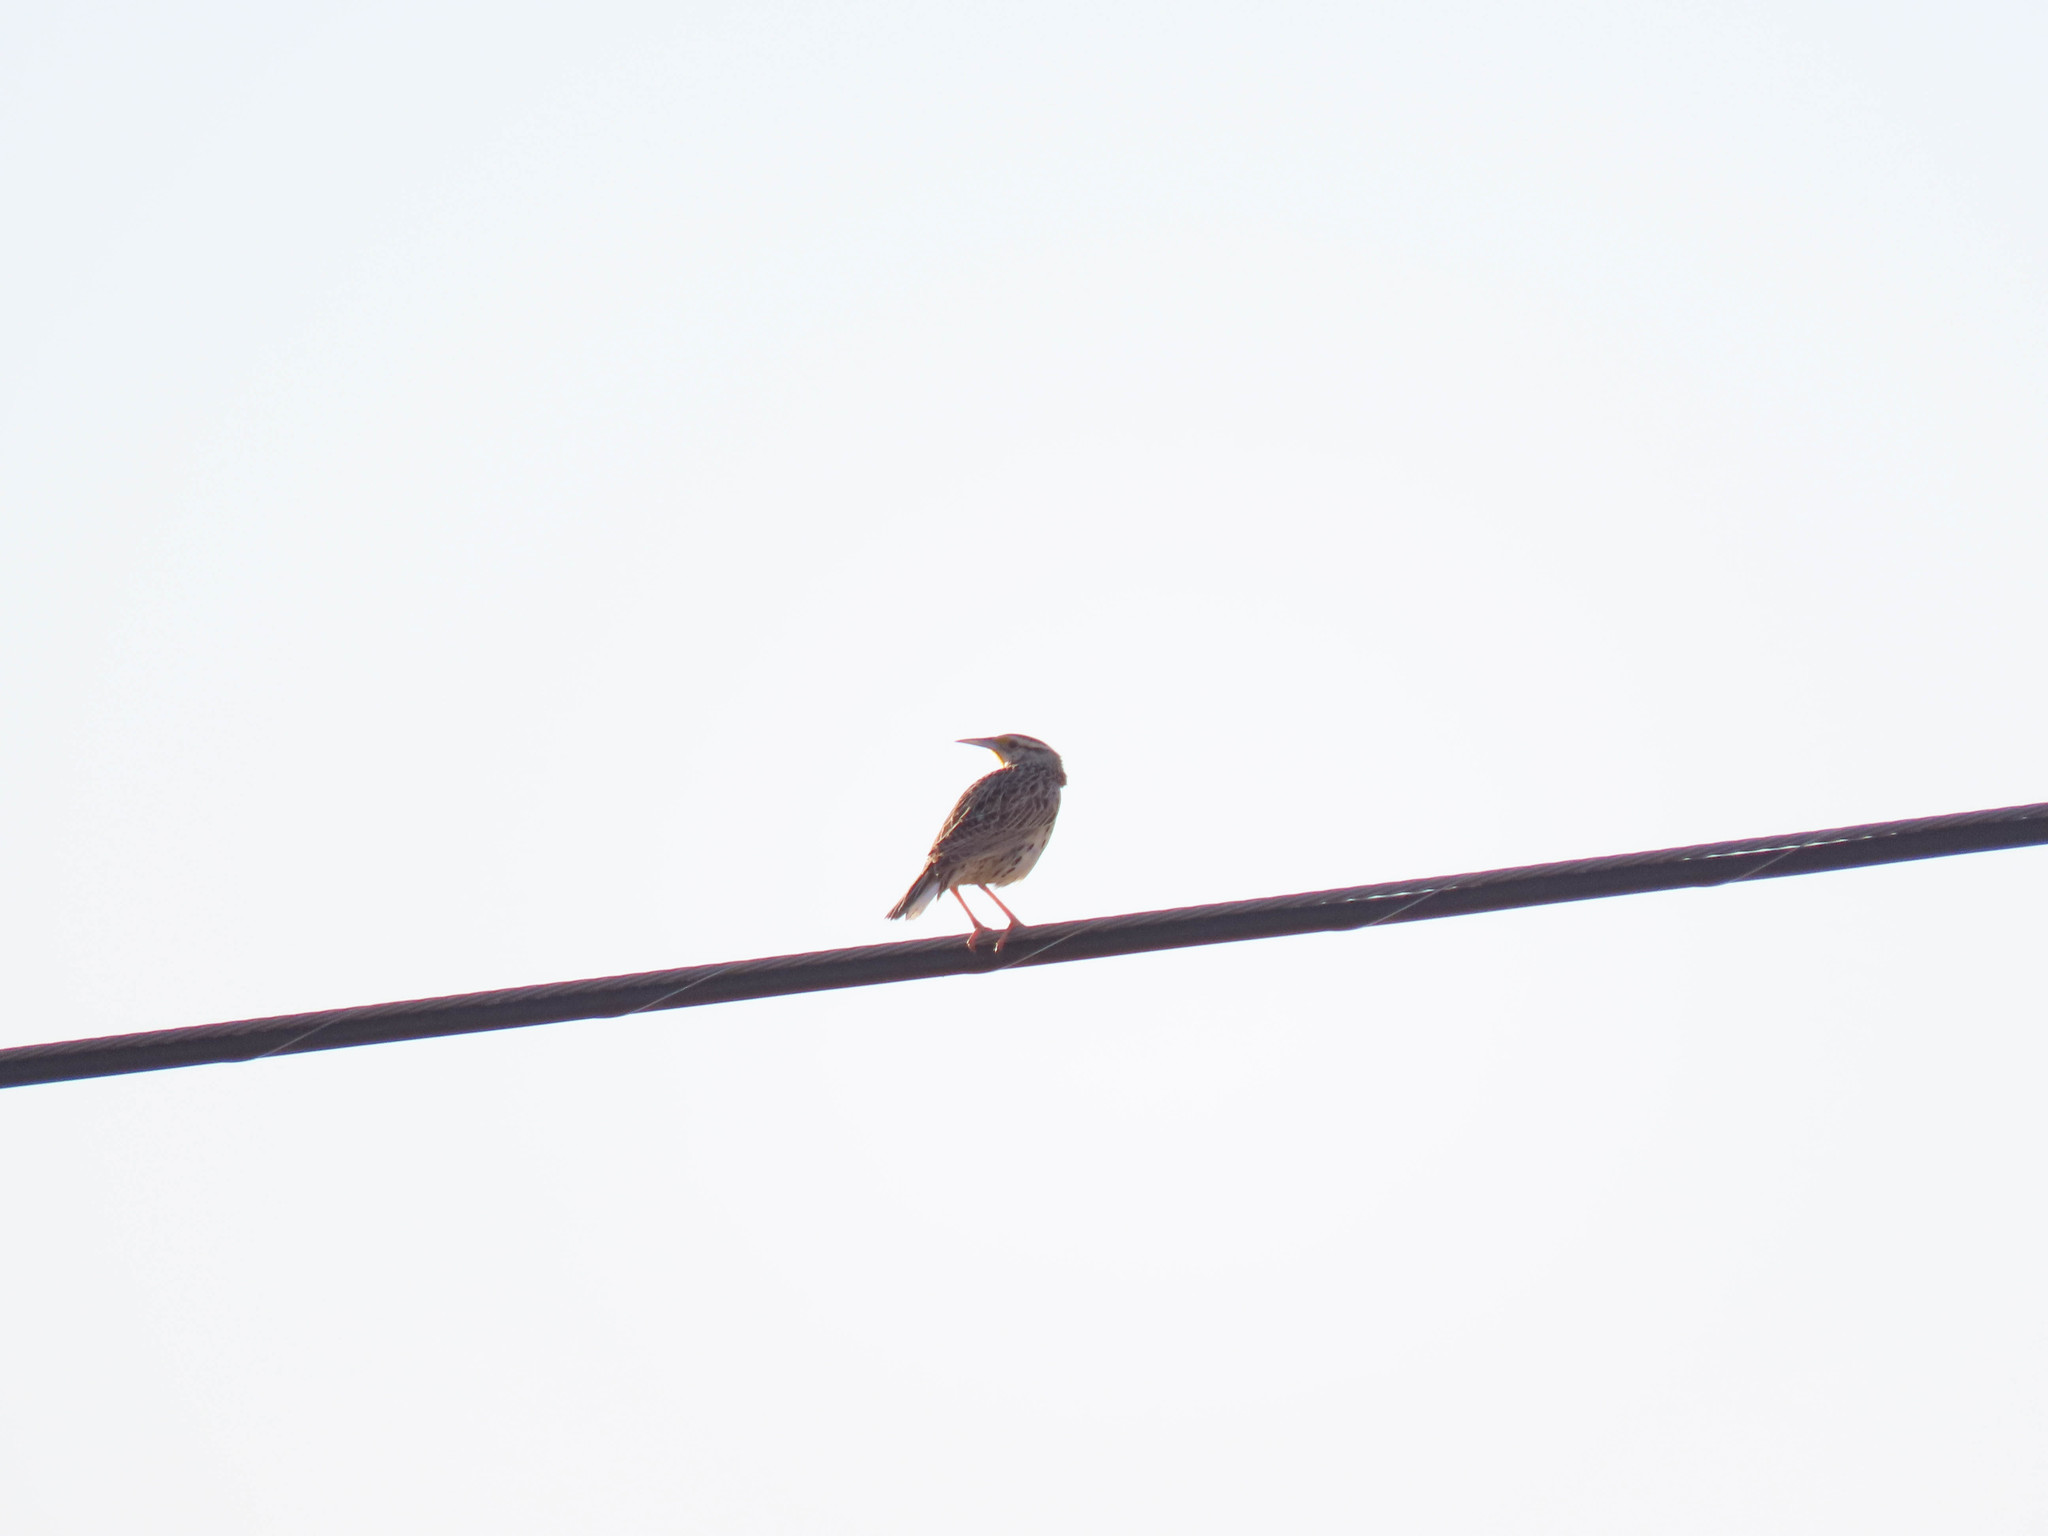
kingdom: Animalia
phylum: Chordata
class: Aves
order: Passeriformes
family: Icteridae
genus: Sturnella
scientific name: Sturnella lilianae
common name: Lilian's meadowlark
